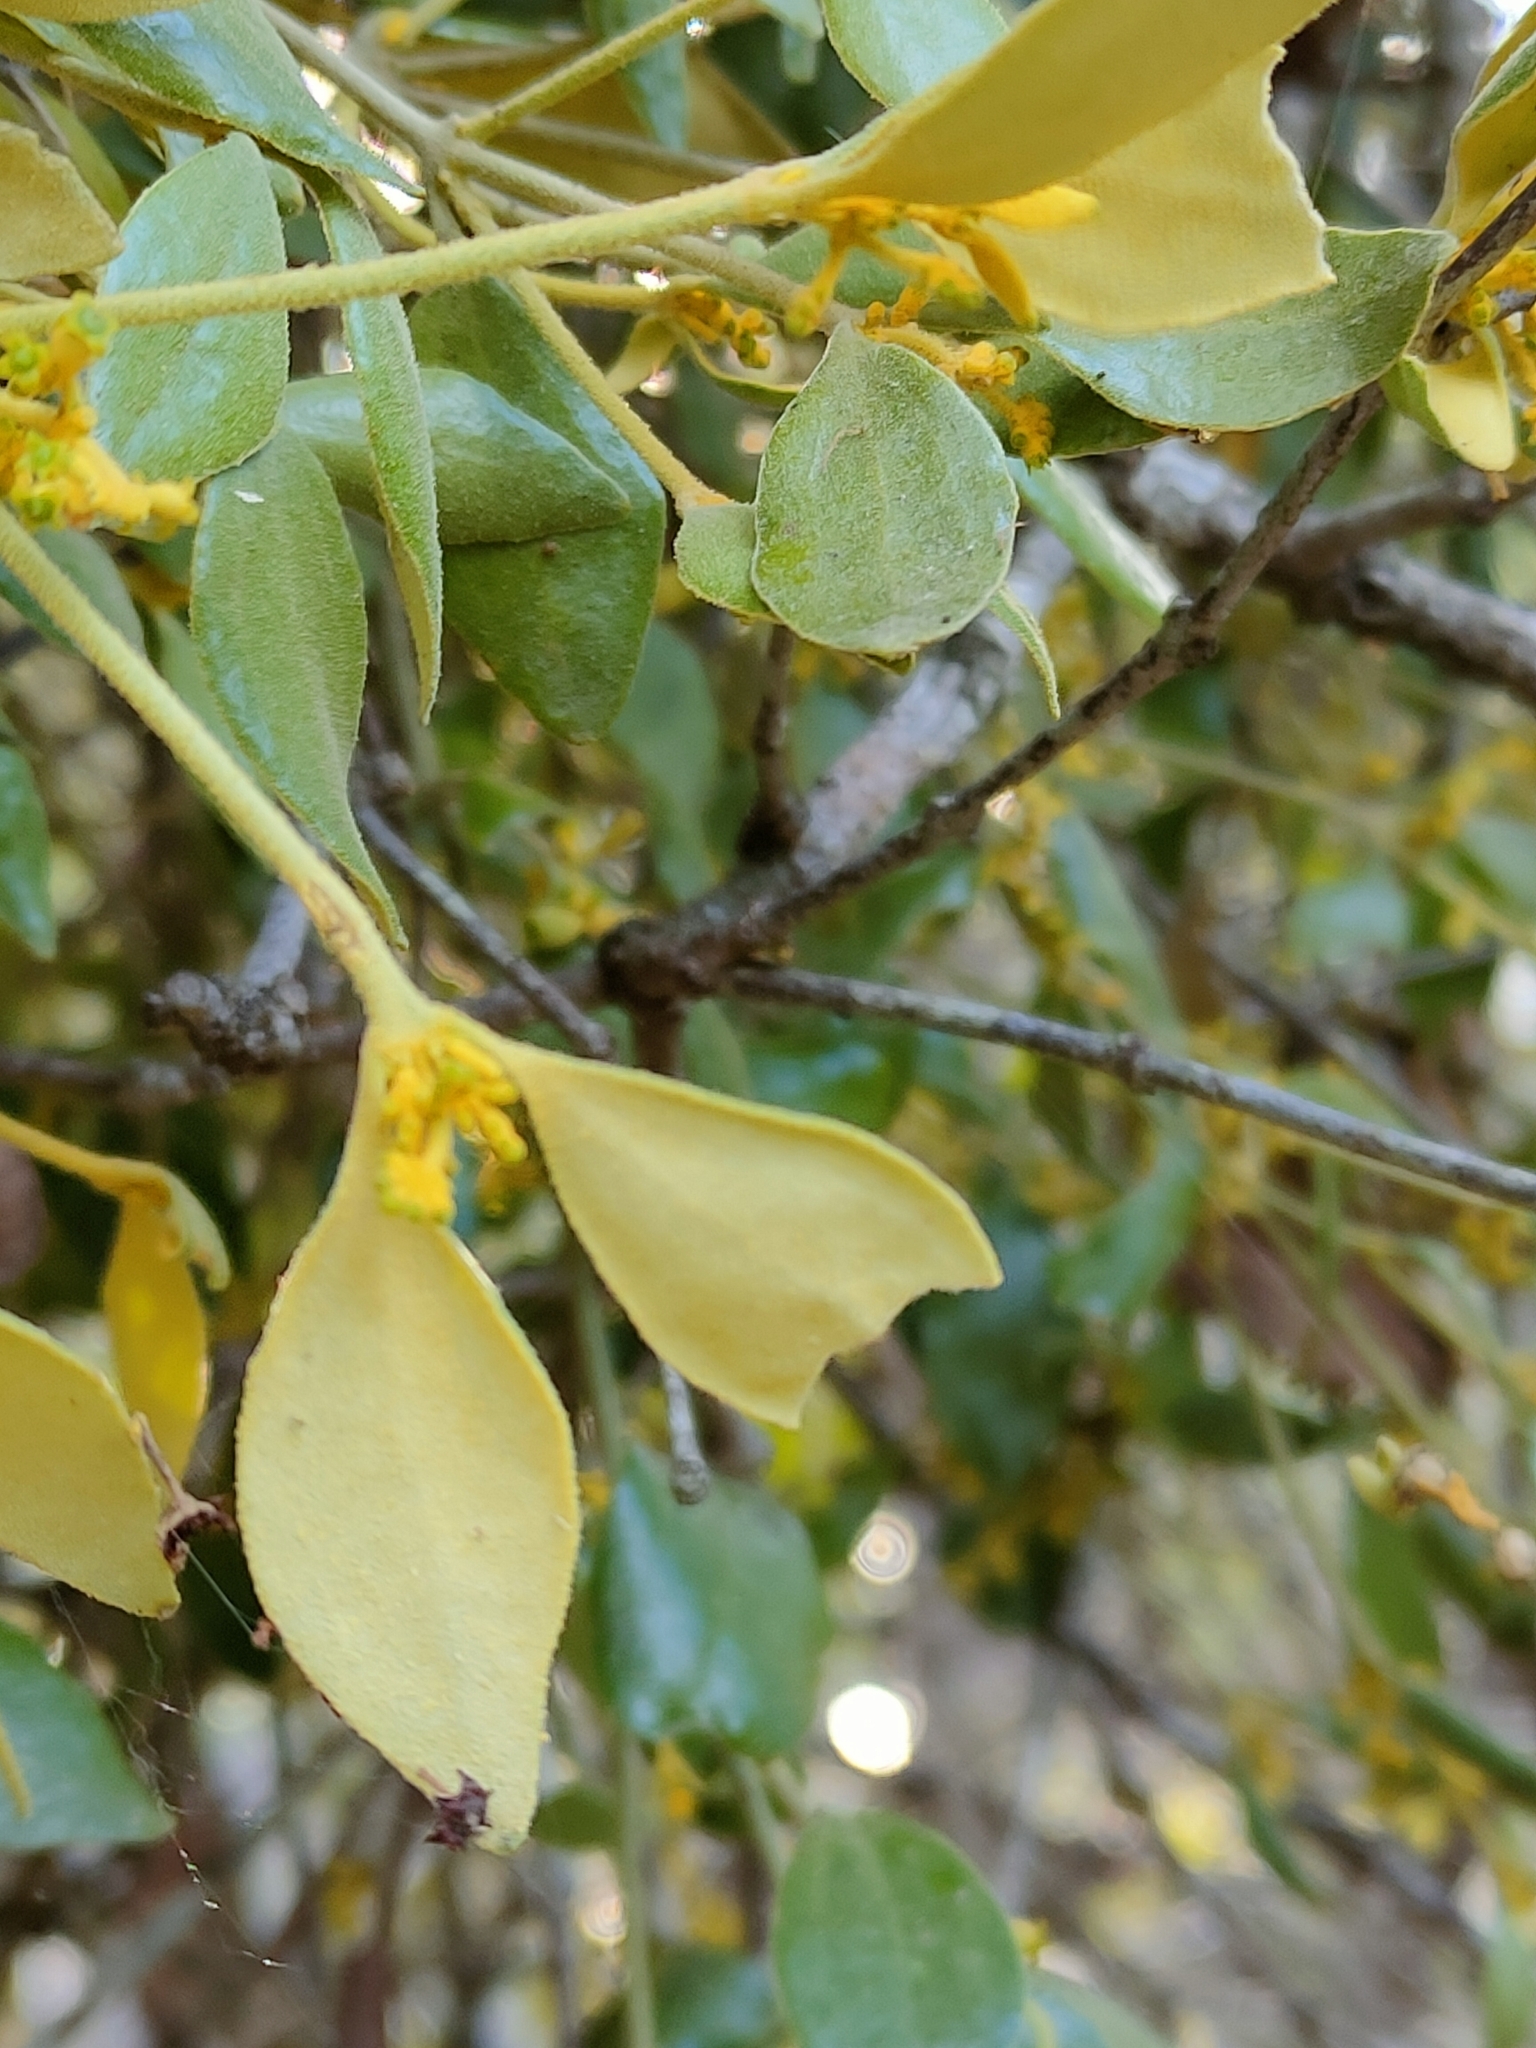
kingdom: Plantae
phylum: Tracheophyta
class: Magnoliopsida
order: Santalales
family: Viscaceae
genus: Notothixos
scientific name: Notothixos subaureus
